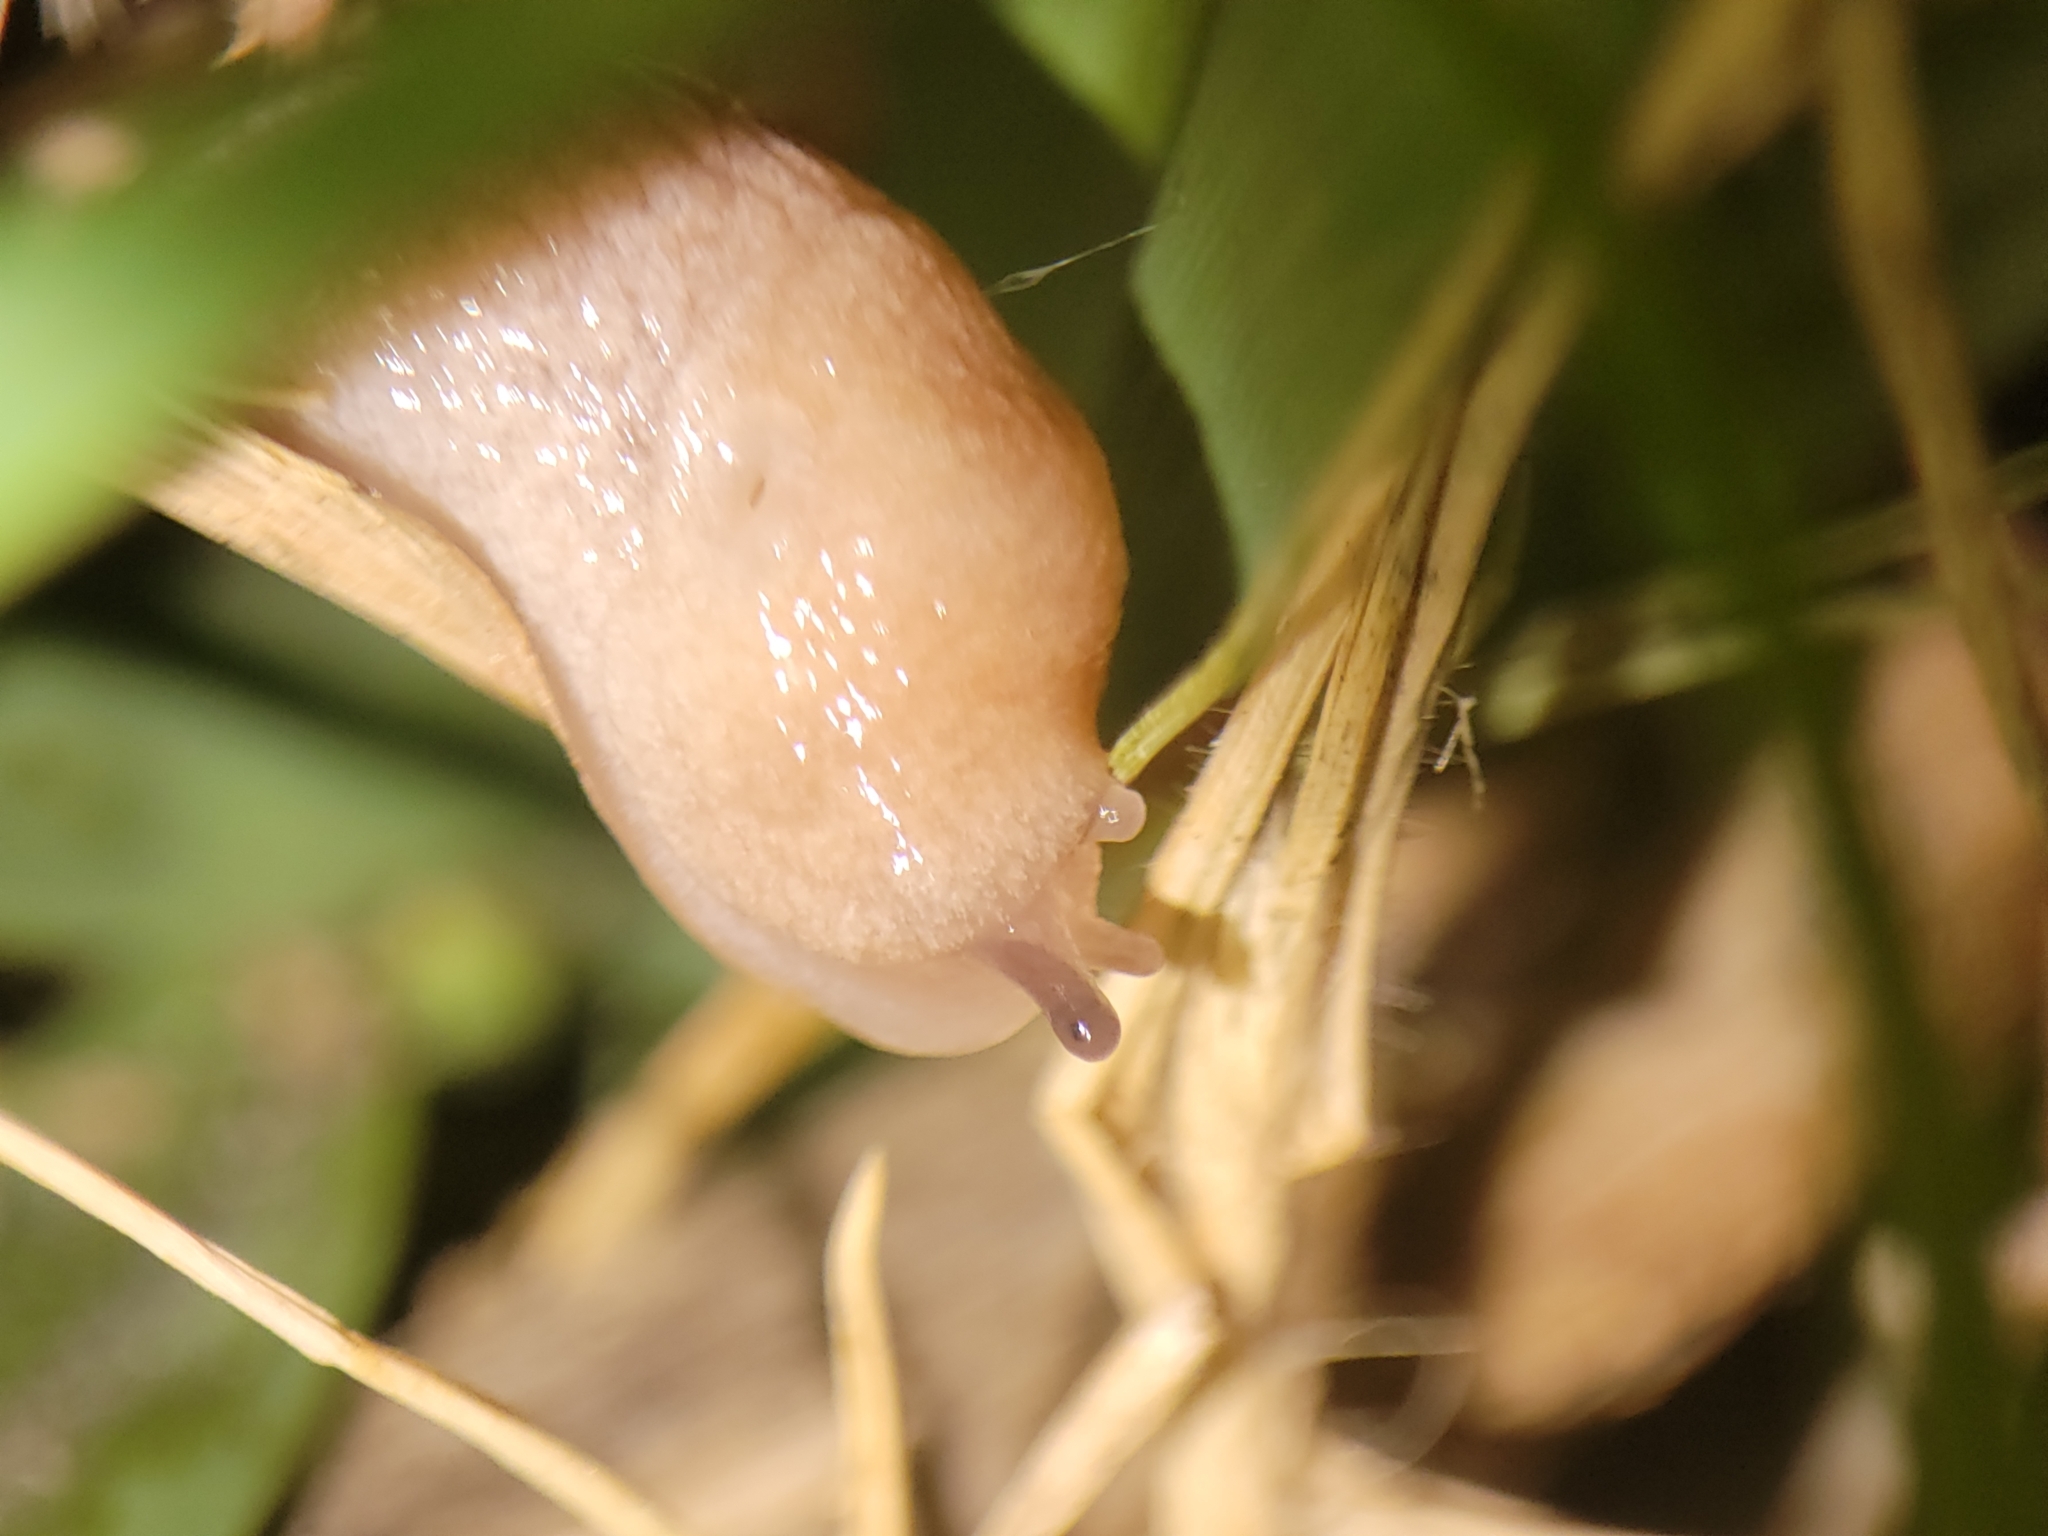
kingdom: Animalia
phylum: Mollusca
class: Gastropoda
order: Stylommatophora
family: Agriolimacidae
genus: Deroceras
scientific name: Deroceras reticulatum
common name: Gray field slug
